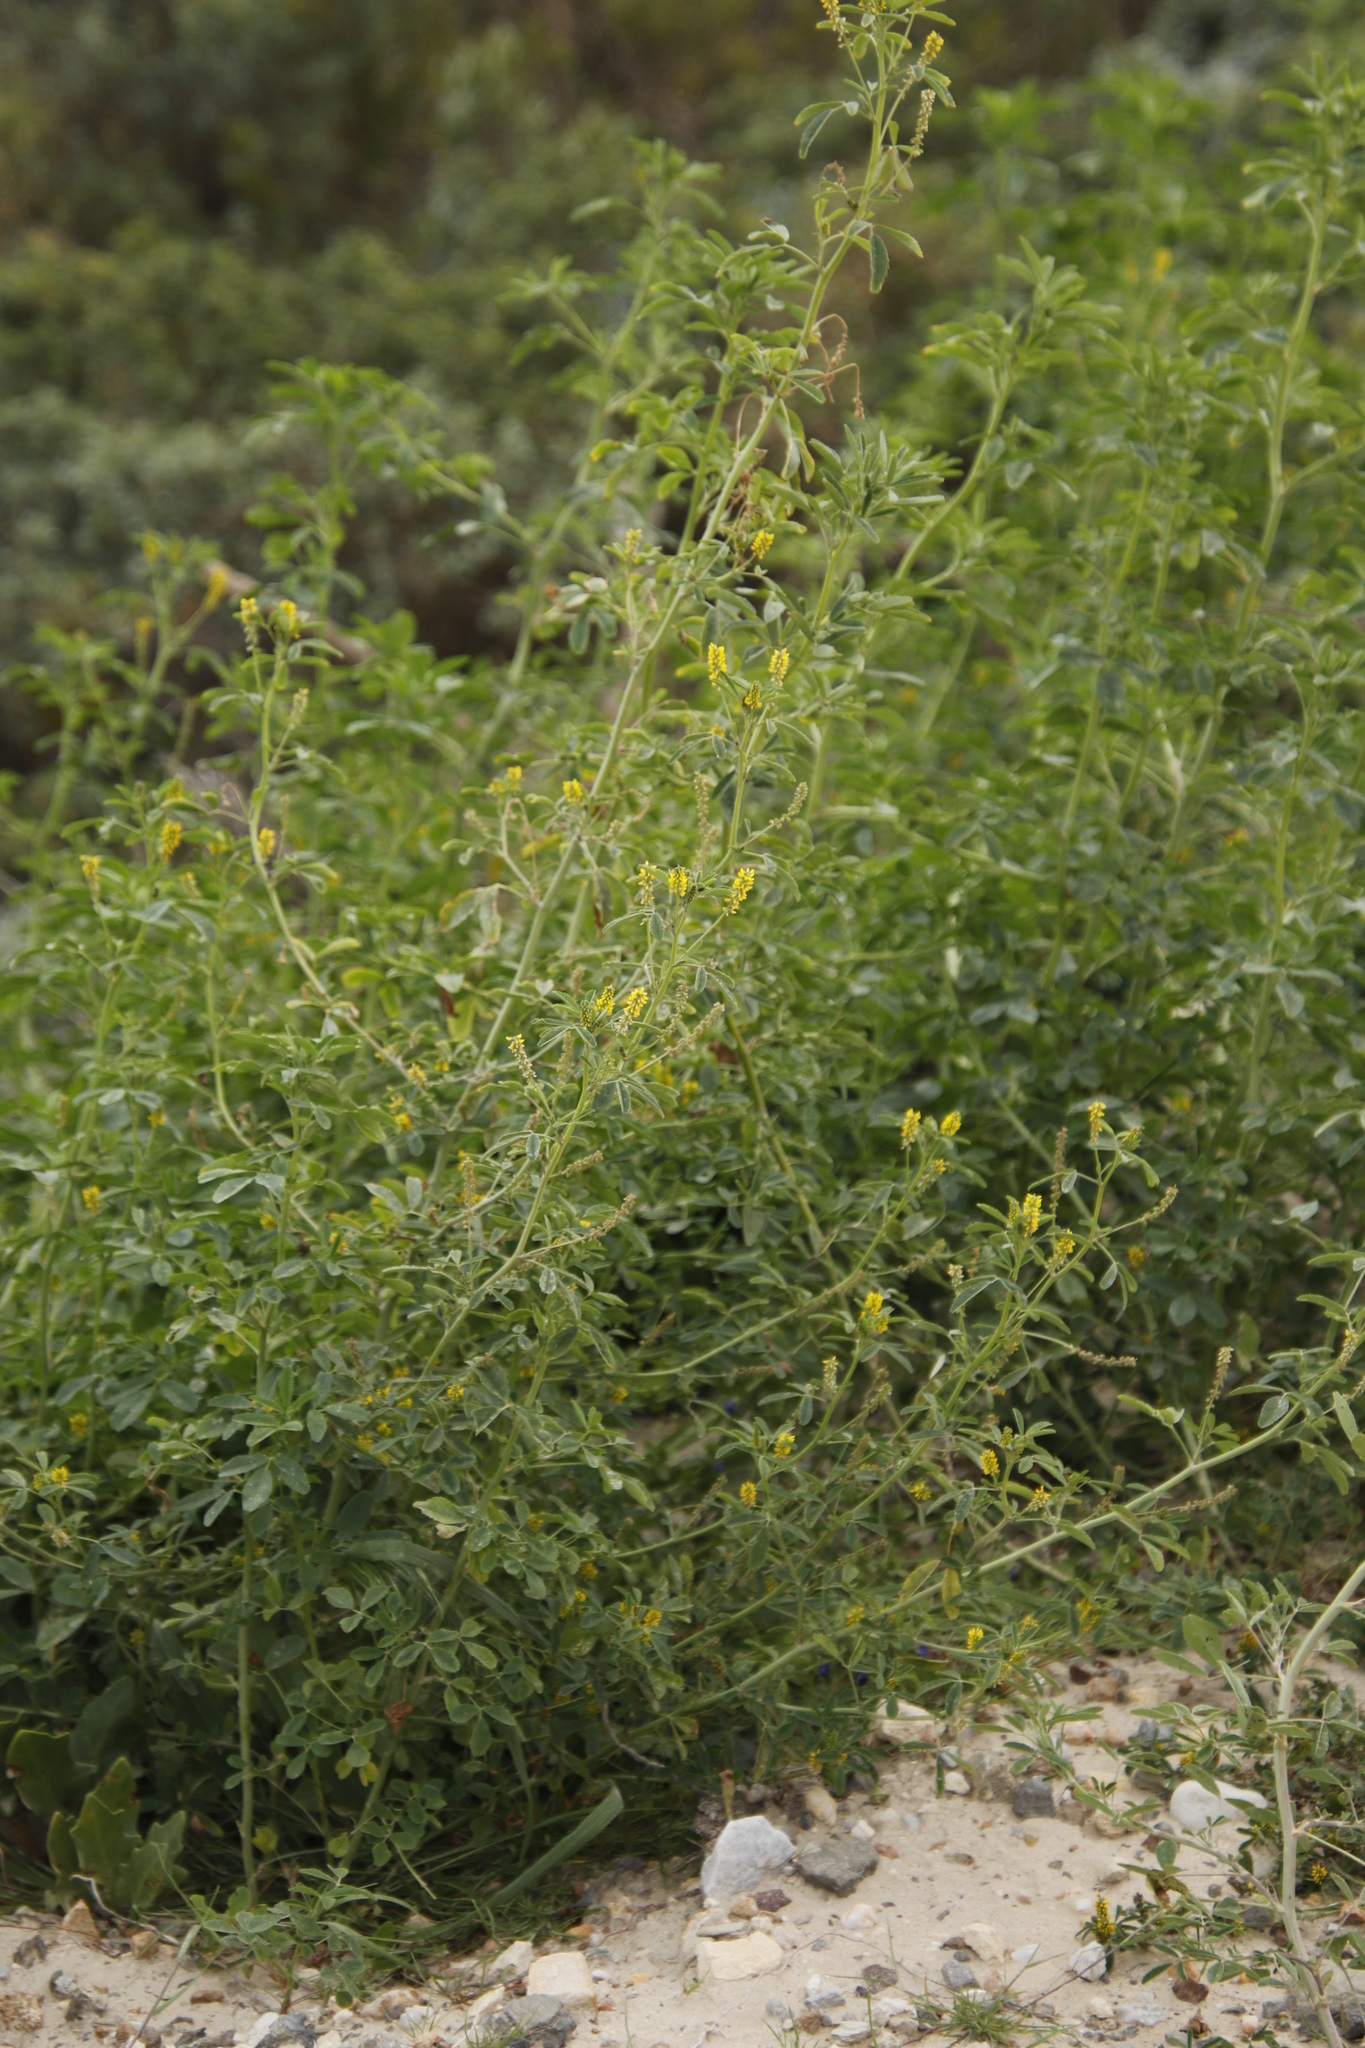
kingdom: Plantae
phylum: Tracheophyta
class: Magnoliopsida
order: Fabales
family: Fabaceae
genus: Melilotus
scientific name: Melilotus indicus
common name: Small melilot
